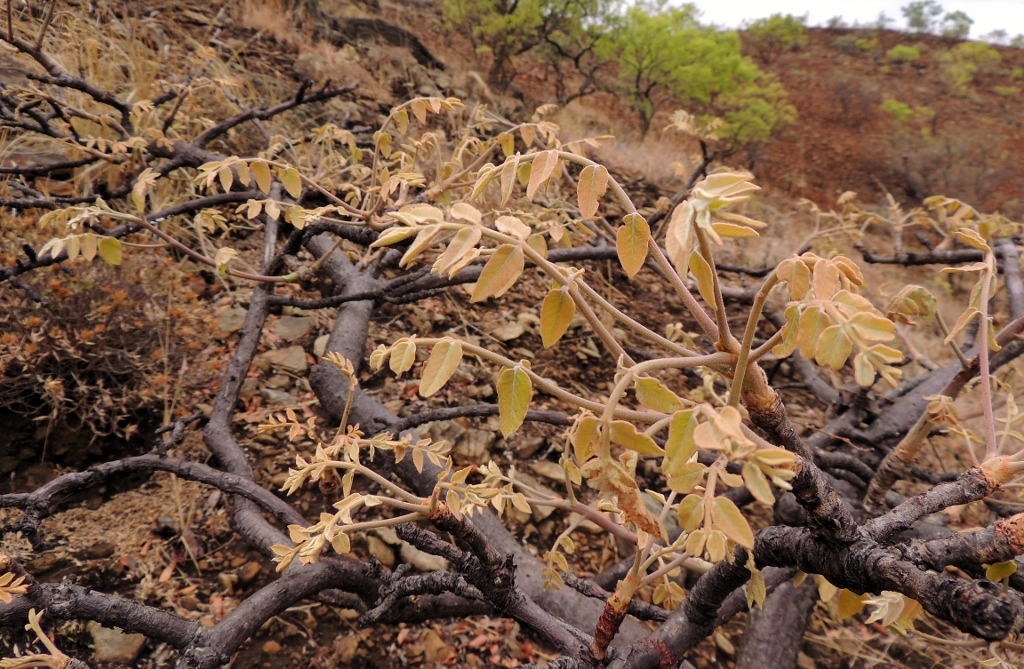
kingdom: Plantae
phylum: Tracheophyta
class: Magnoliopsida
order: Sapindales
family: Anacardiaceae
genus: Lannea
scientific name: Lannea discolor
